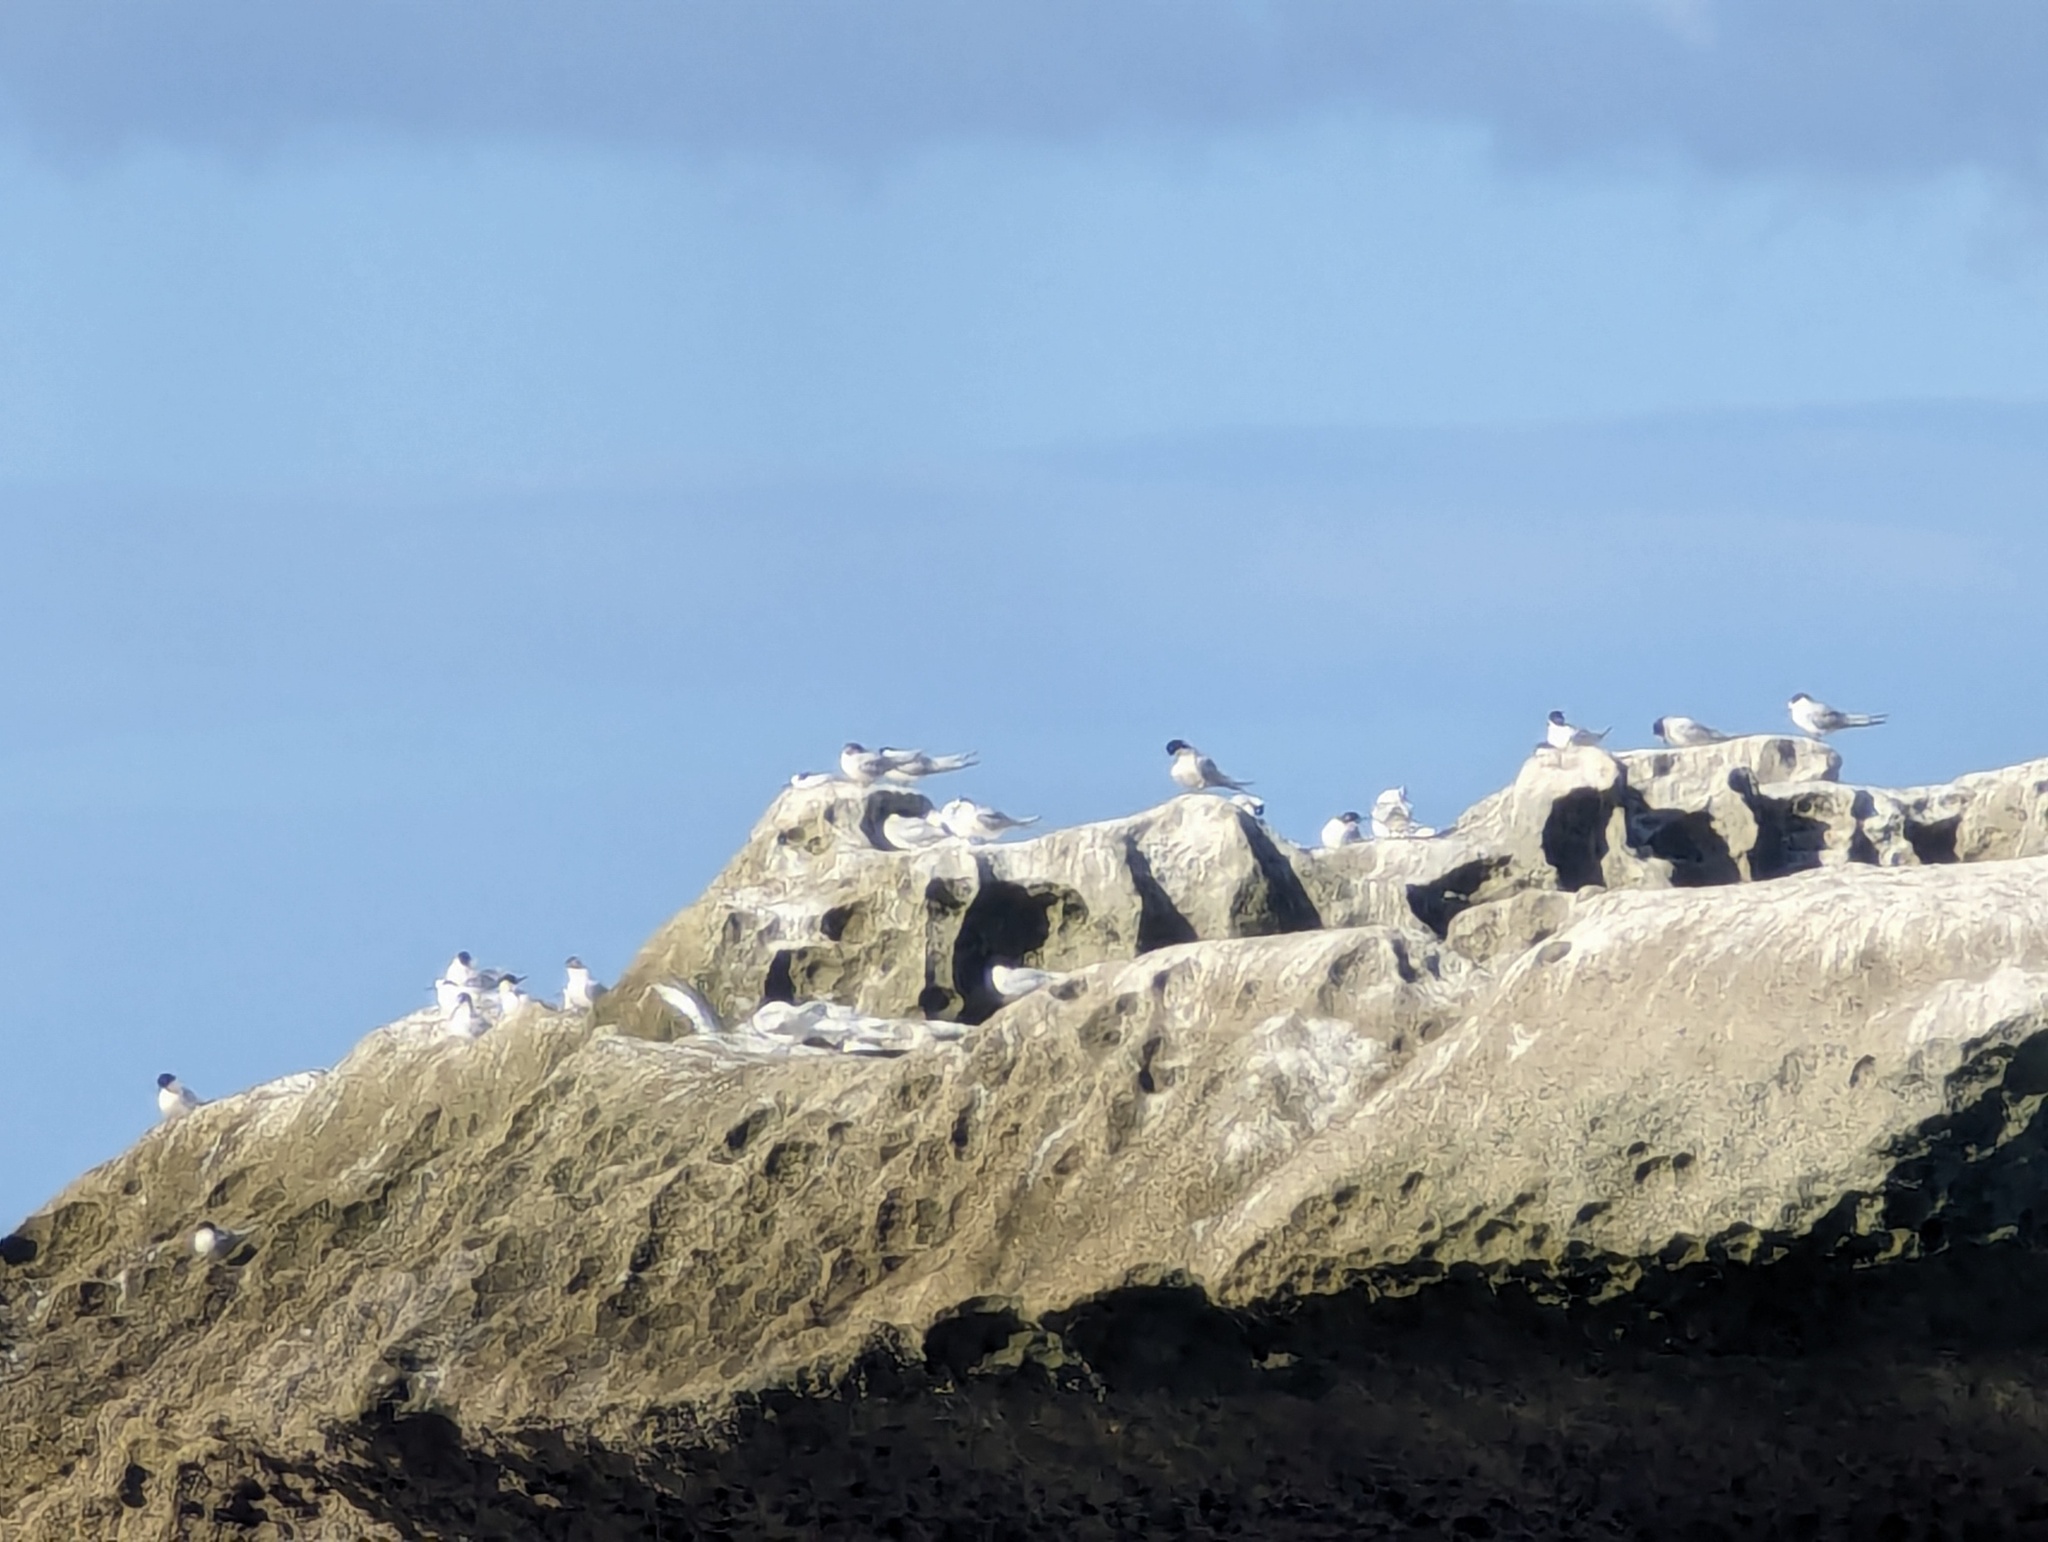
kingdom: Animalia
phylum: Chordata
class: Aves
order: Charadriiformes
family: Laridae
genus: Sterna
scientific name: Sterna striata
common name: White-fronted tern
